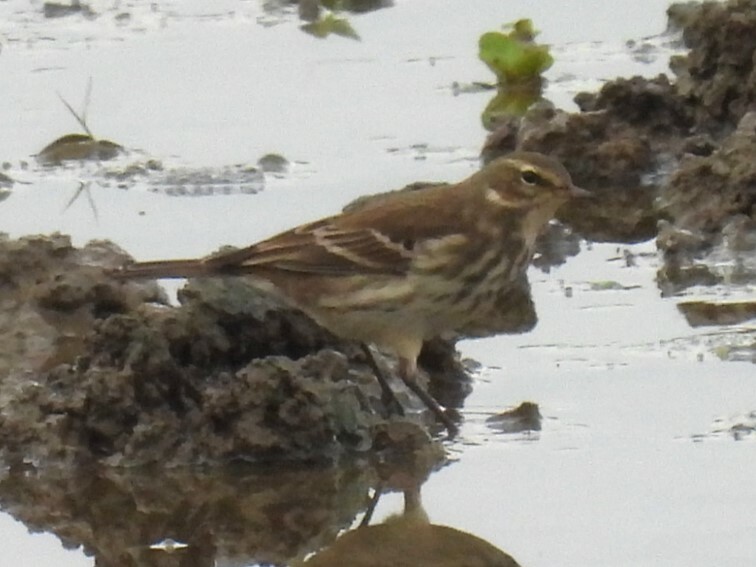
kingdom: Animalia
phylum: Chordata
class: Aves
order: Passeriformes
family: Motacillidae
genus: Anthus
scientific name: Anthus spinoletta
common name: Water pipit
